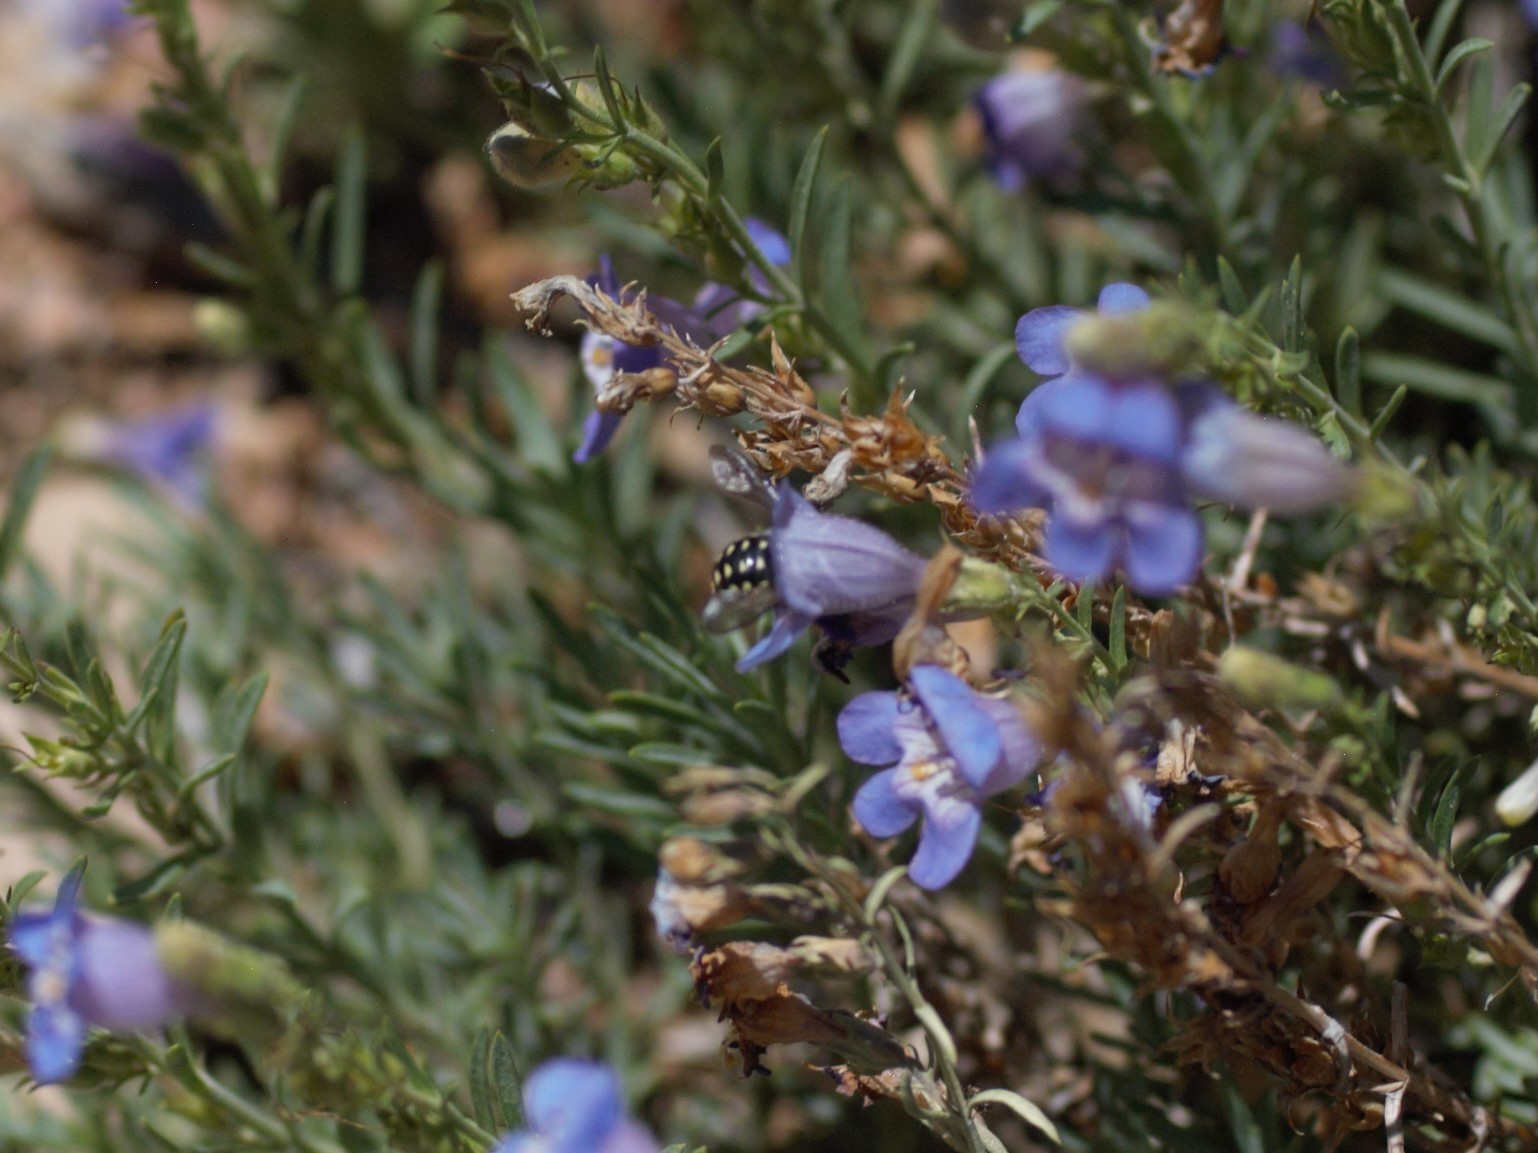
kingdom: Animalia
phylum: Arthropoda
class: Insecta
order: Hymenoptera
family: Megachilidae
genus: Anthidium
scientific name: Anthidium maculosum
